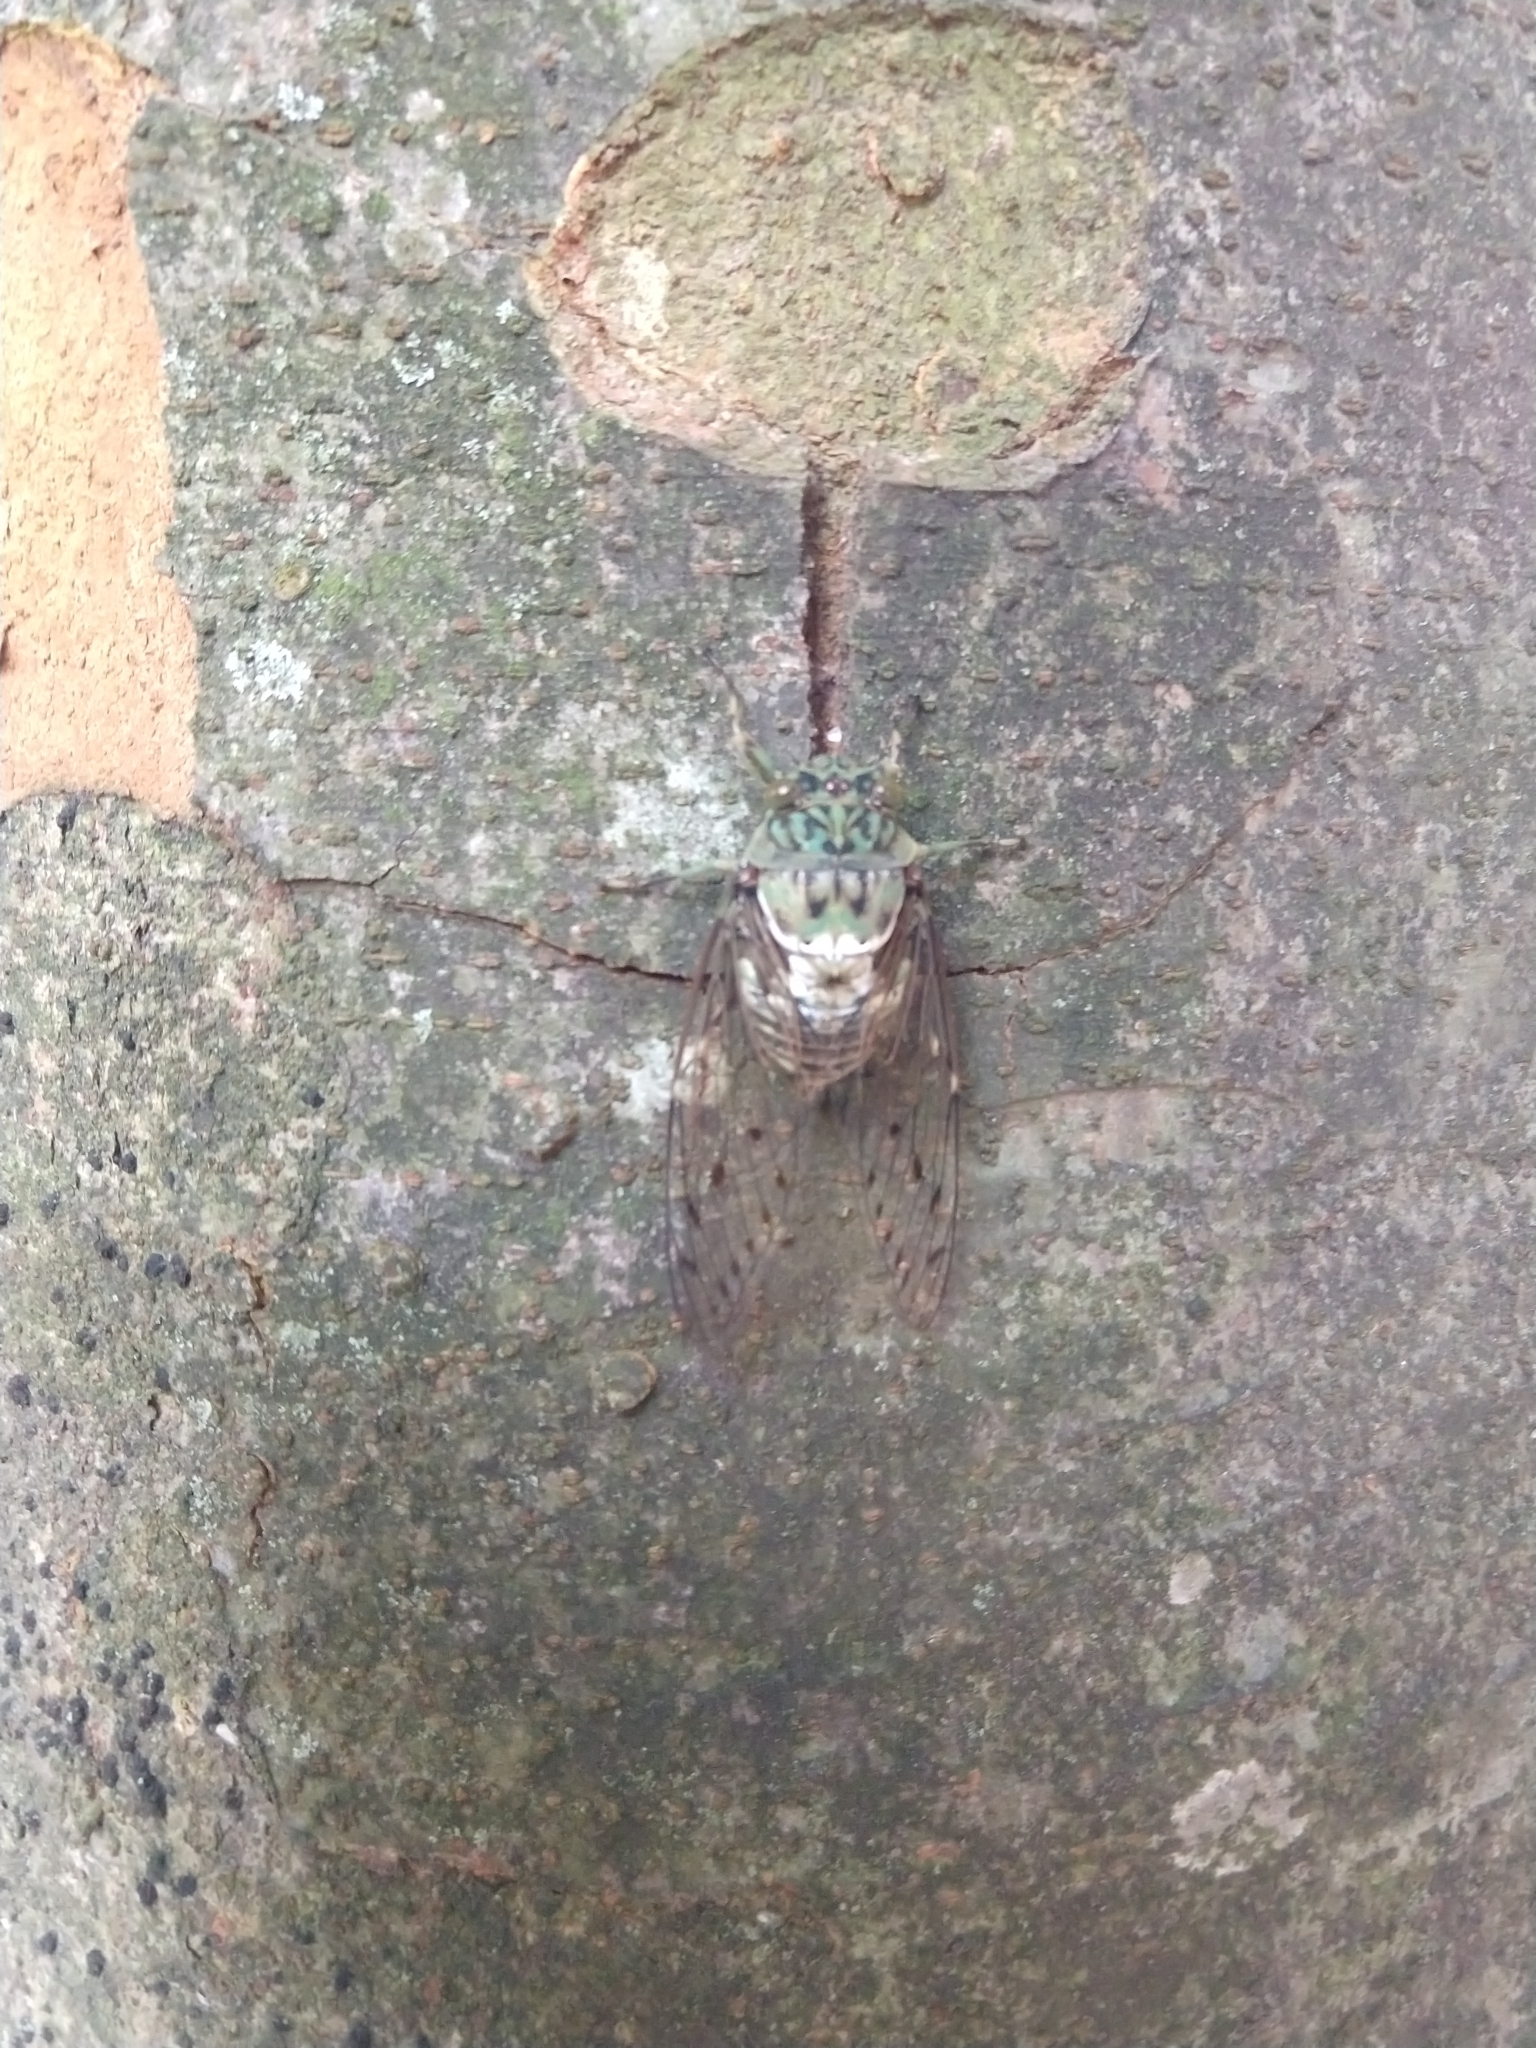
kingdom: Animalia
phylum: Arthropoda
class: Insecta
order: Hemiptera
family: Cicadidae
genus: Hyalessa
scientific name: Hyalessa maculaticollis
